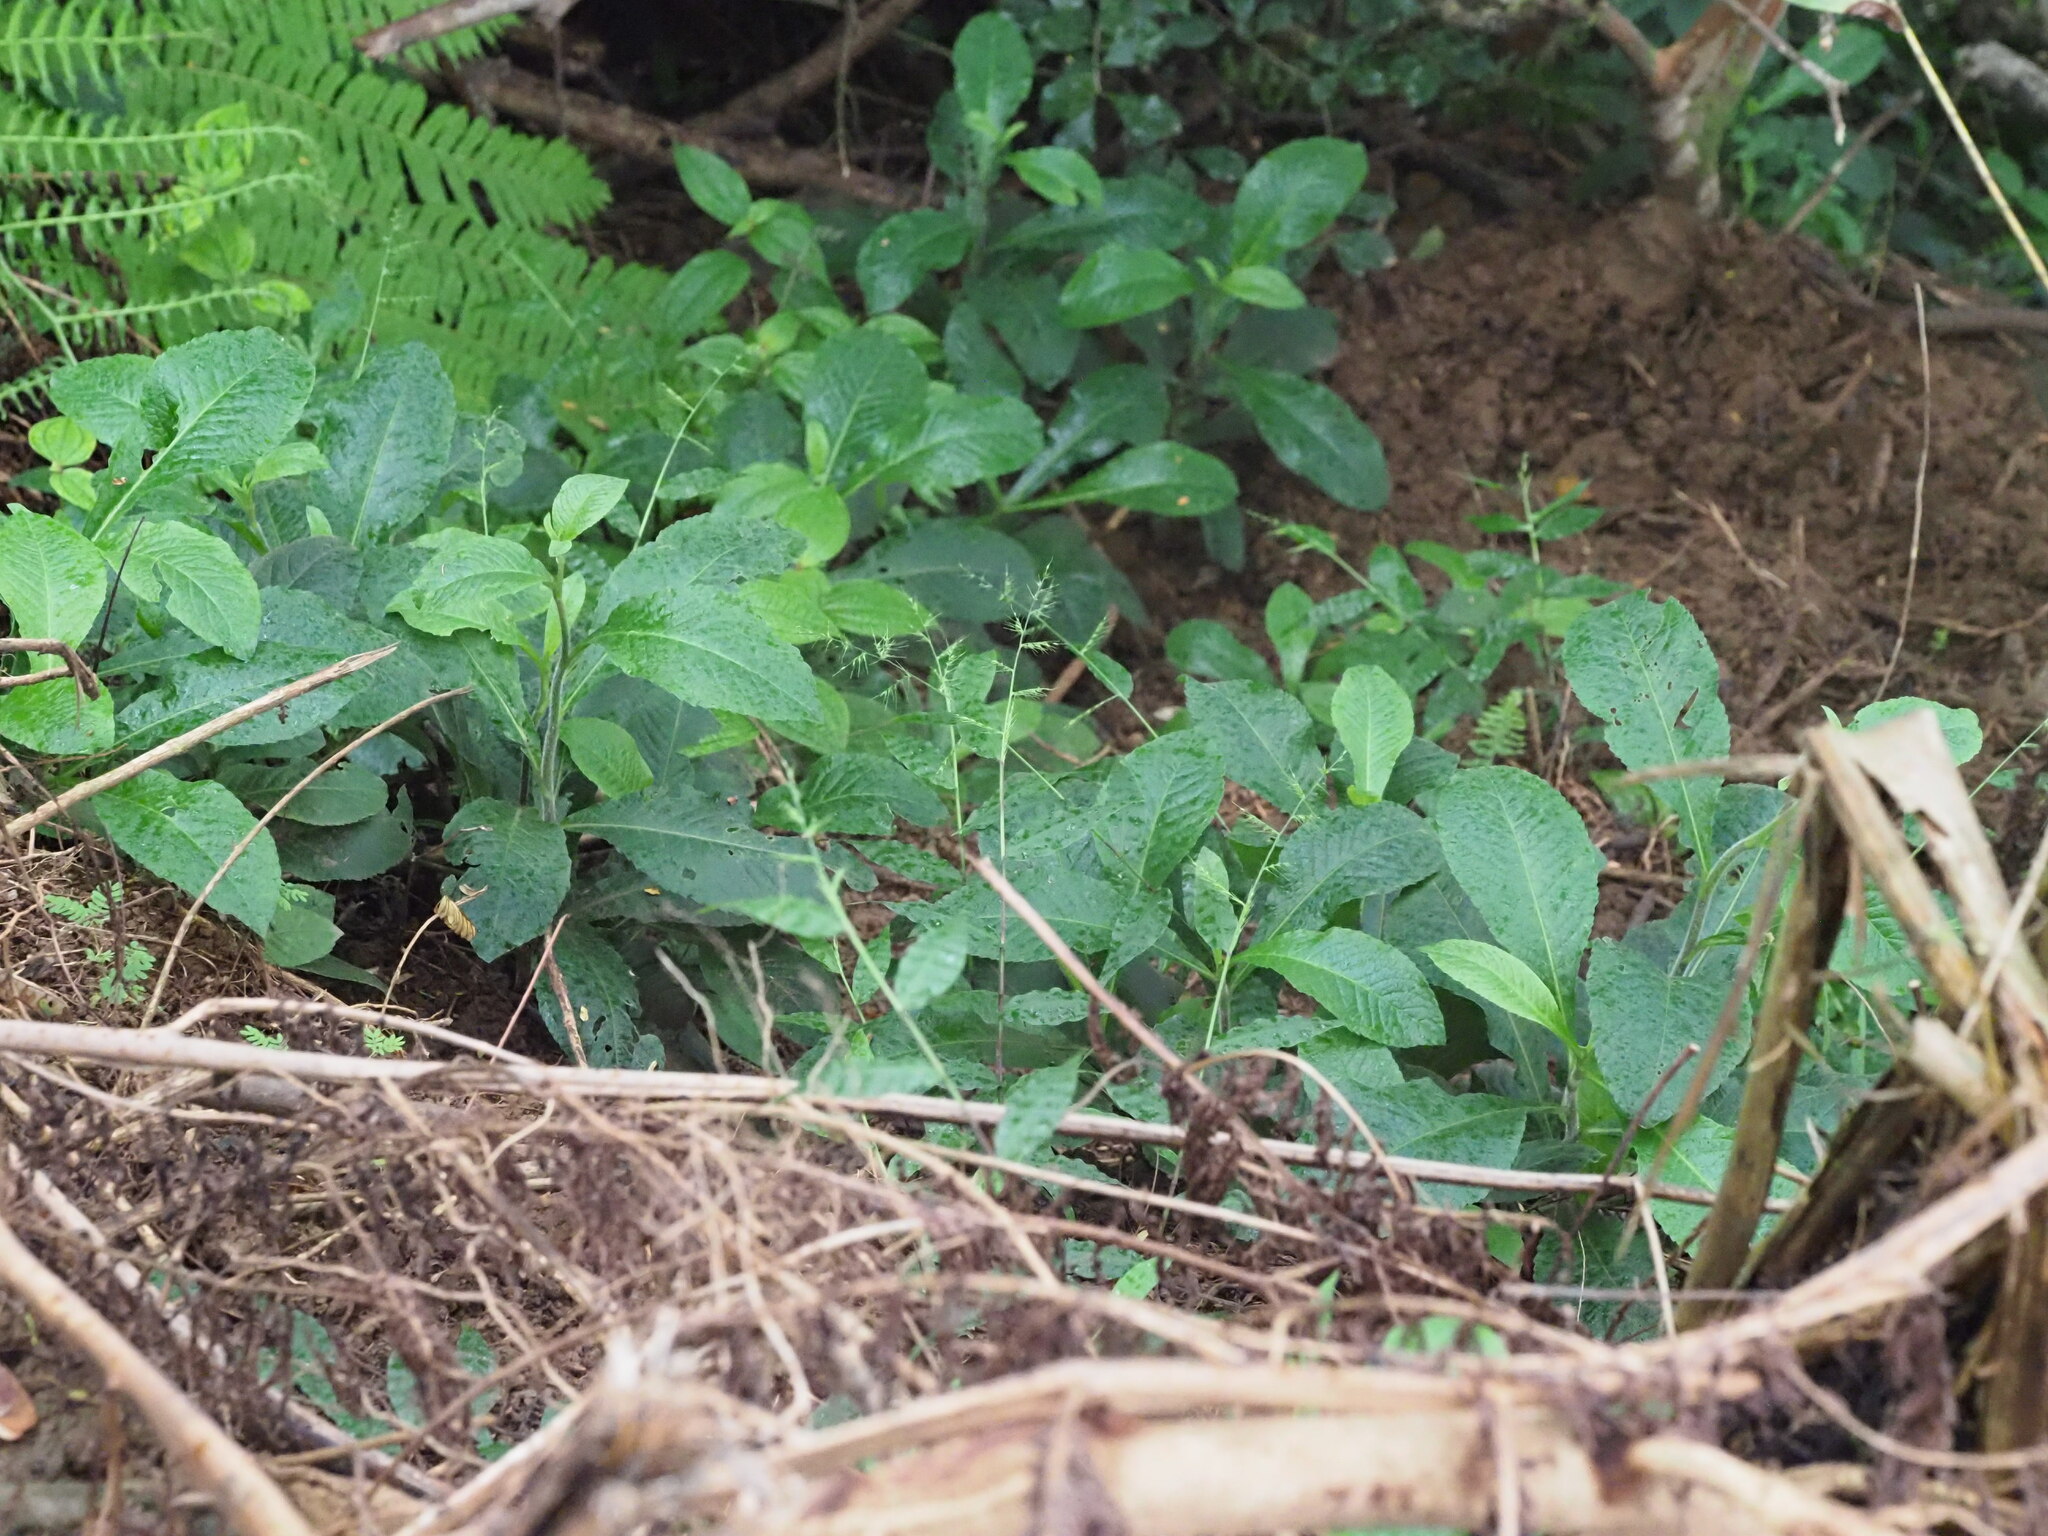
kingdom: Plantae
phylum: Tracheophyta
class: Liliopsida
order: Poales
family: Poaceae
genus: Oplismenus
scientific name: Oplismenus hirtellus
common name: Basketgrass
